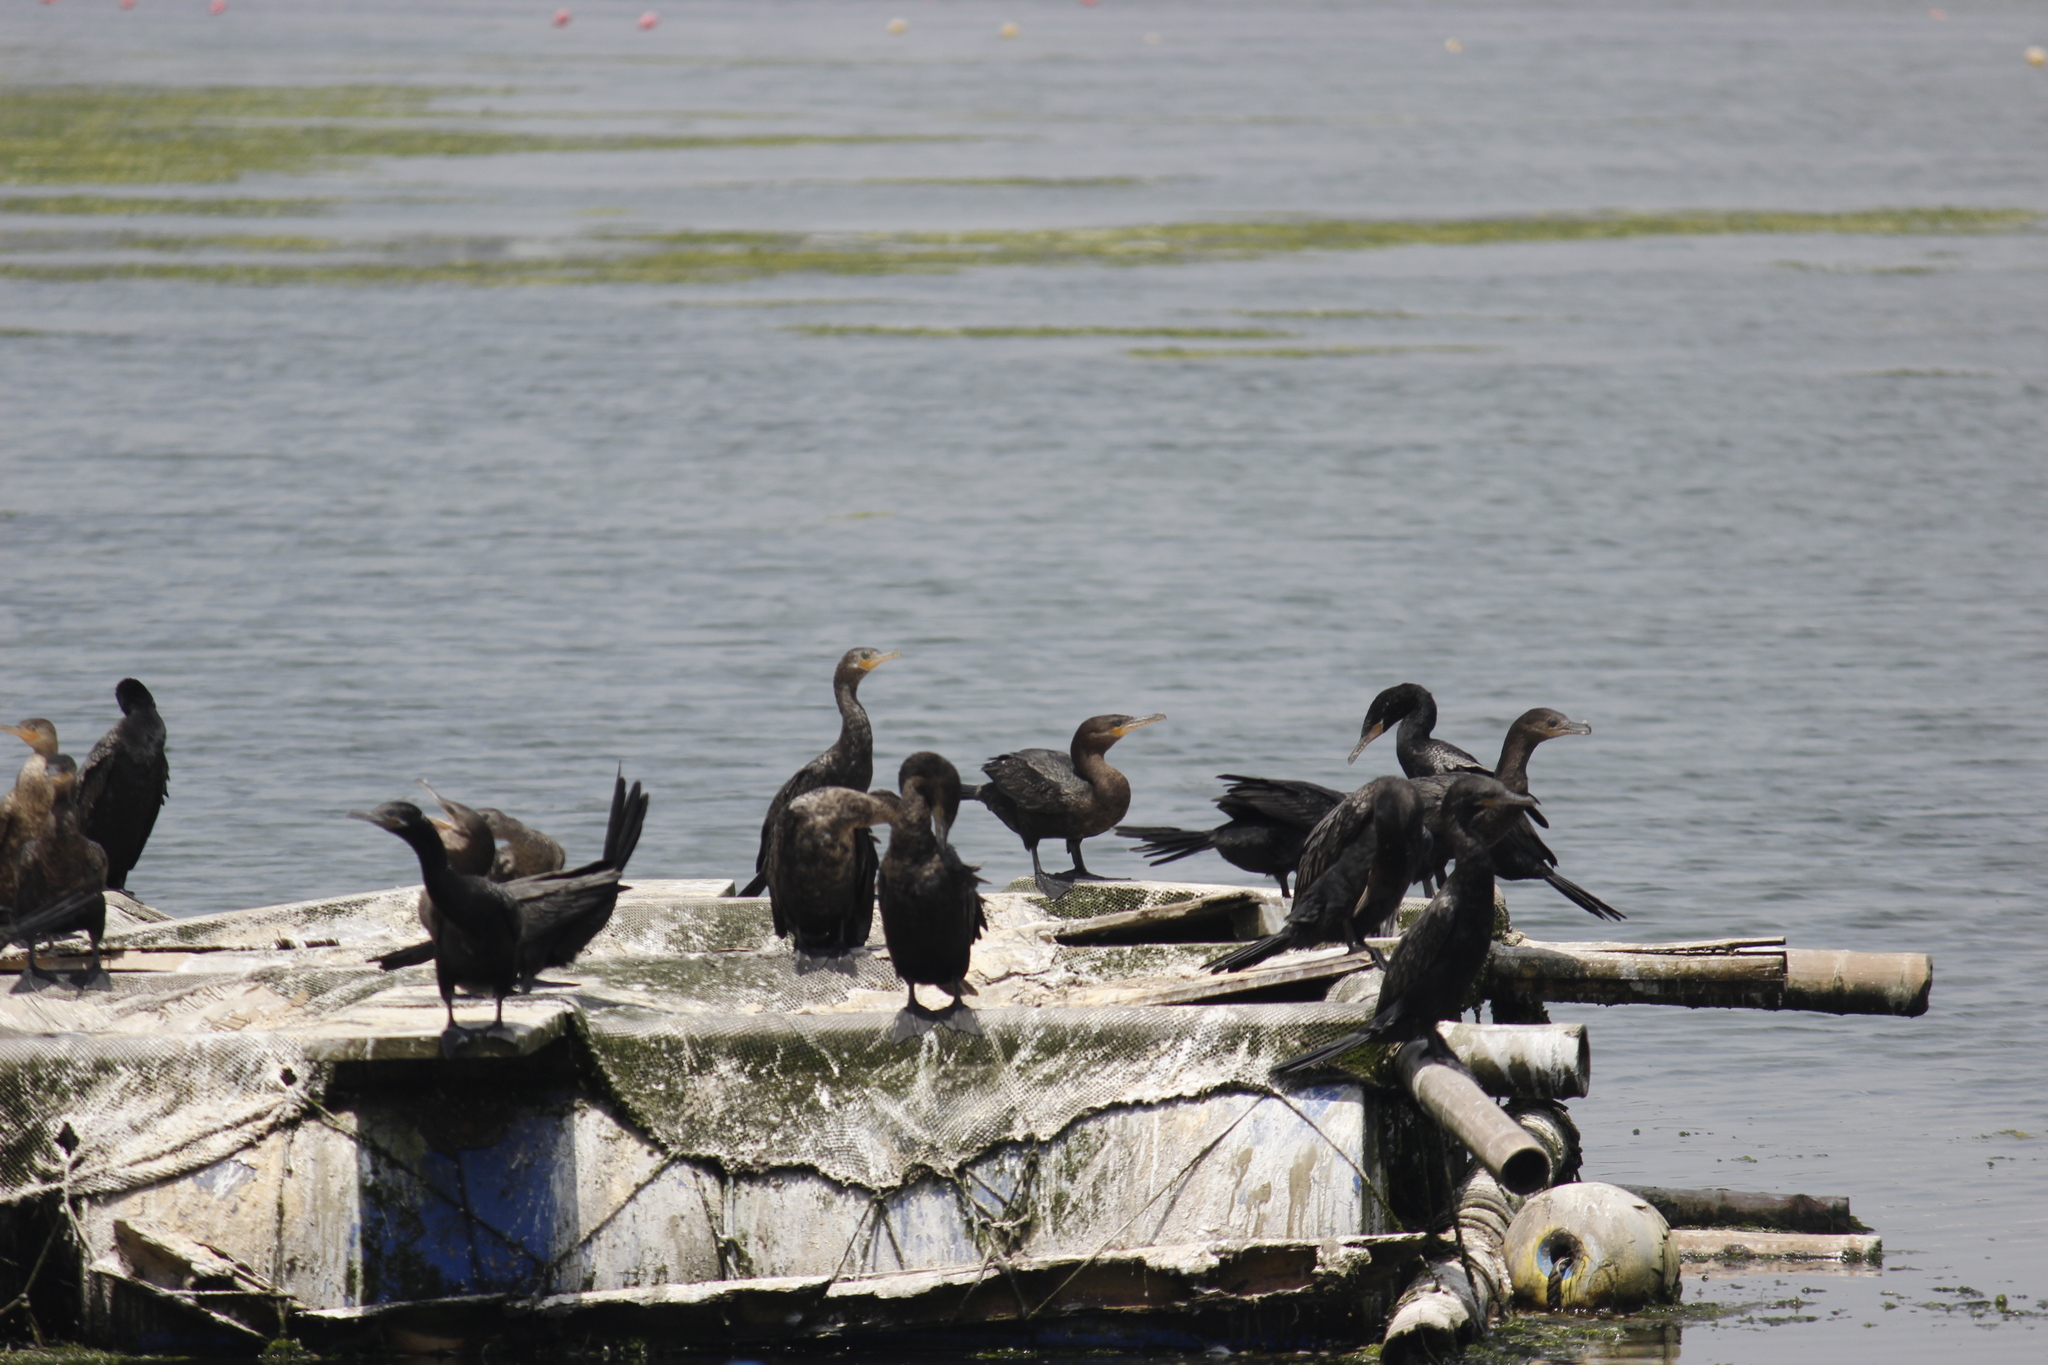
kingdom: Animalia
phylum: Chordata
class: Aves
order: Suliformes
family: Phalacrocoracidae
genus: Phalacrocorax
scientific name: Phalacrocorax brasilianus
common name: Neotropic cormorant
